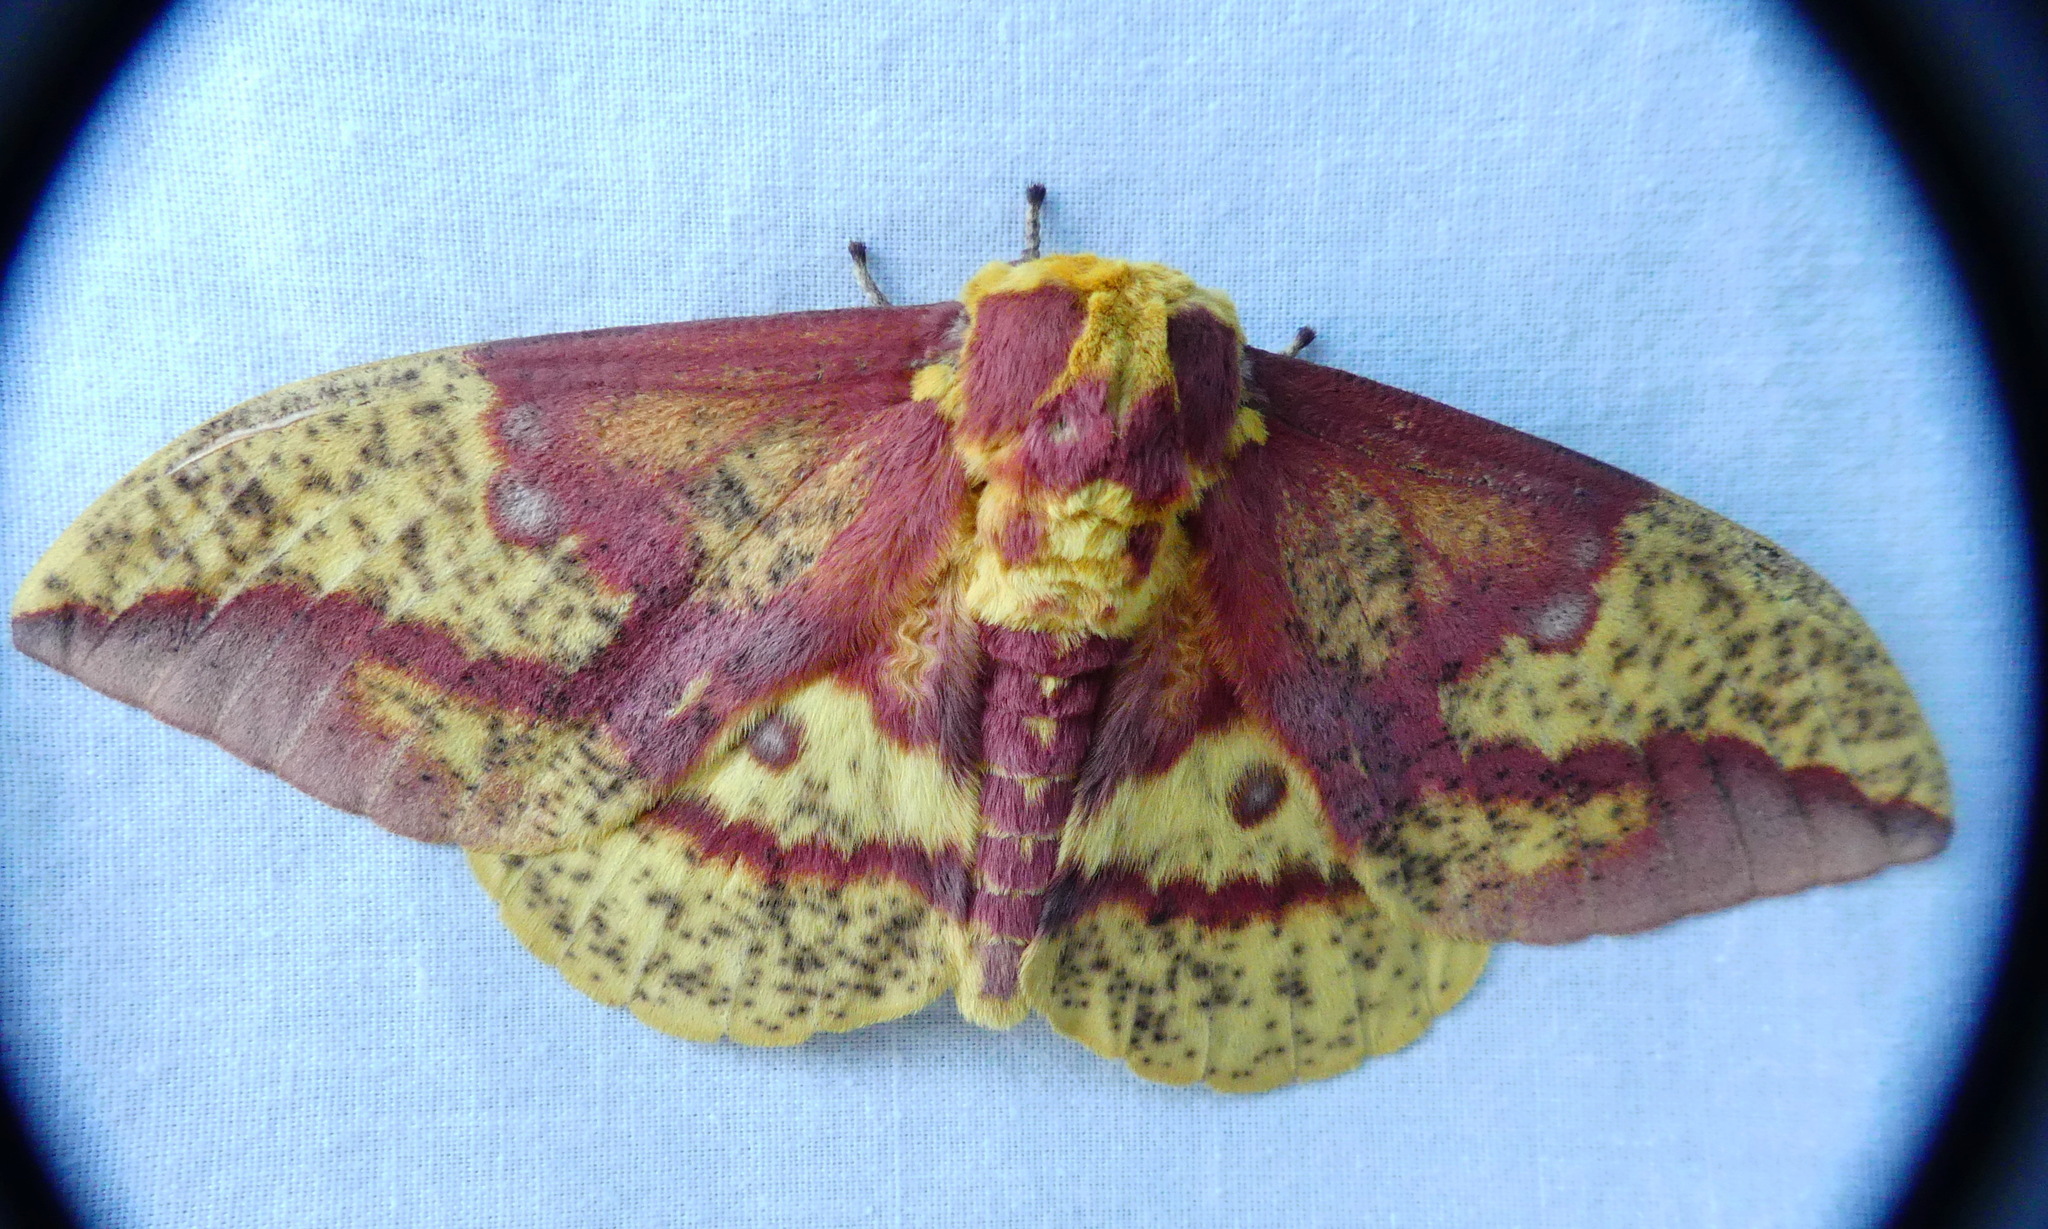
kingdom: Animalia
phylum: Arthropoda
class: Insecta
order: Lepidoptera
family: Saturniidae
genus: Eacles
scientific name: Eacles
